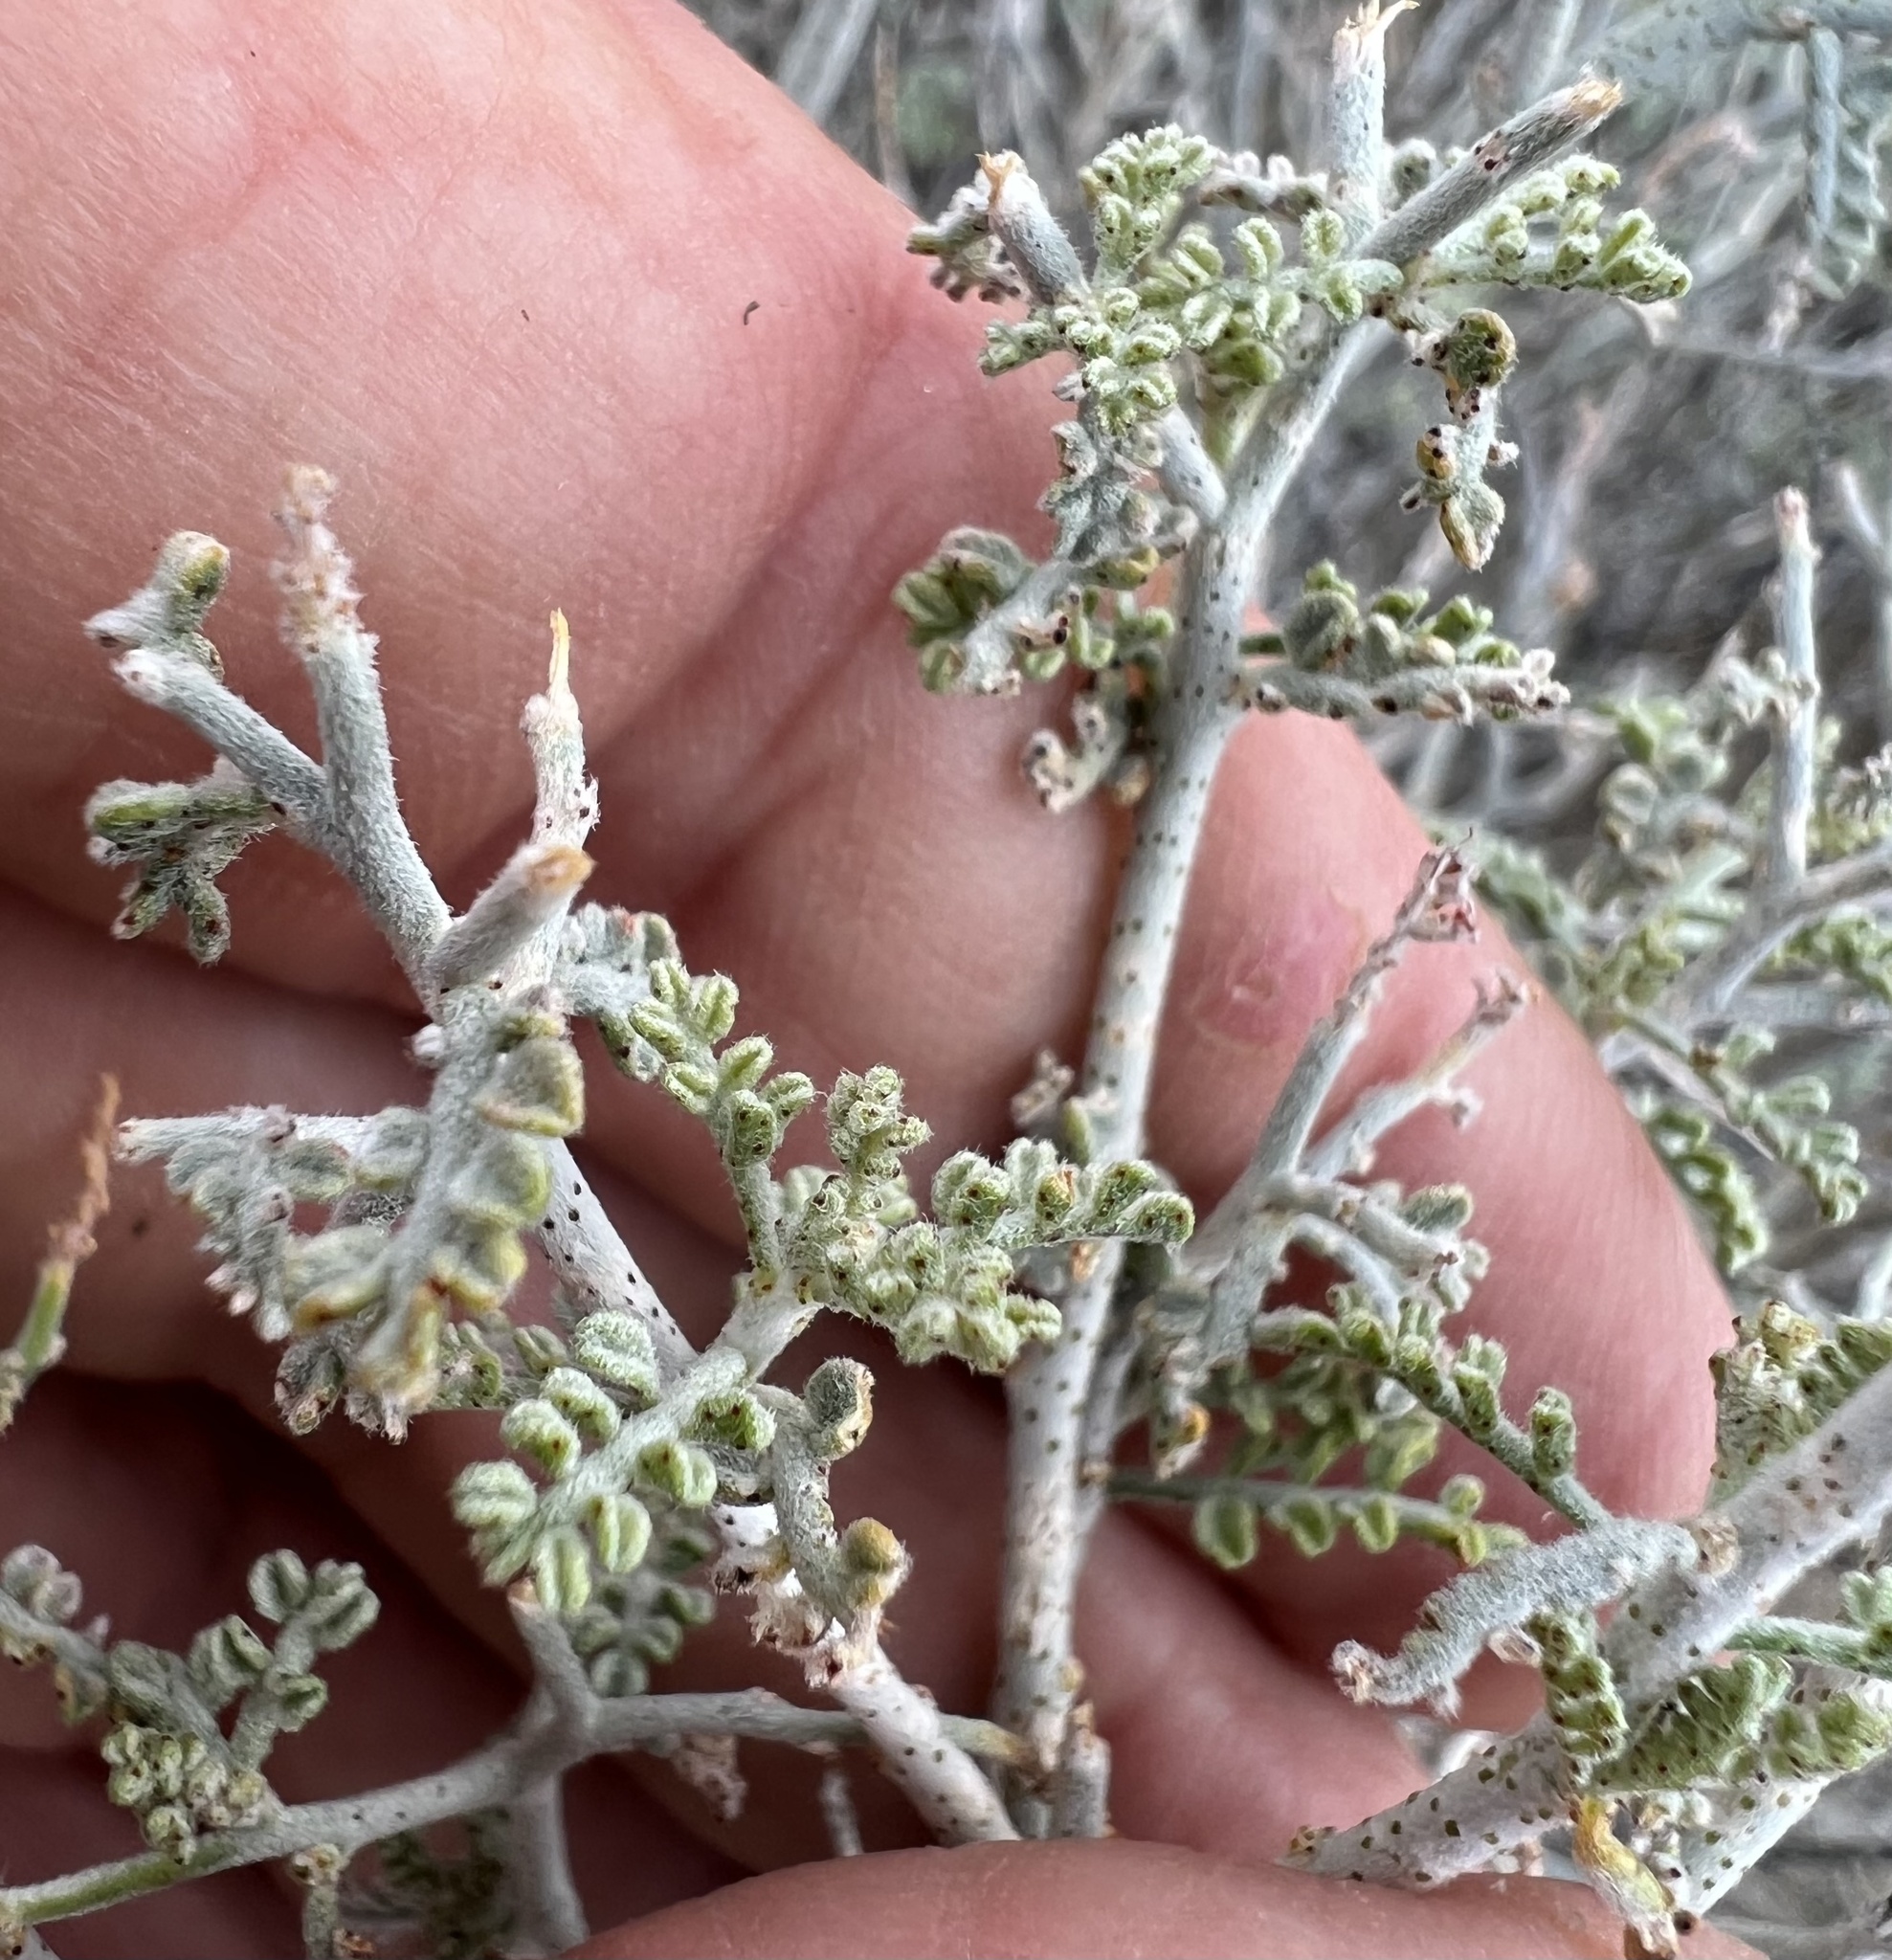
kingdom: Plantae
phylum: Tracheophyta
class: Magnoliopsida
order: Fabales
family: Fabaceae
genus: Psorothamnus
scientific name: Psorothamnus polydenius
